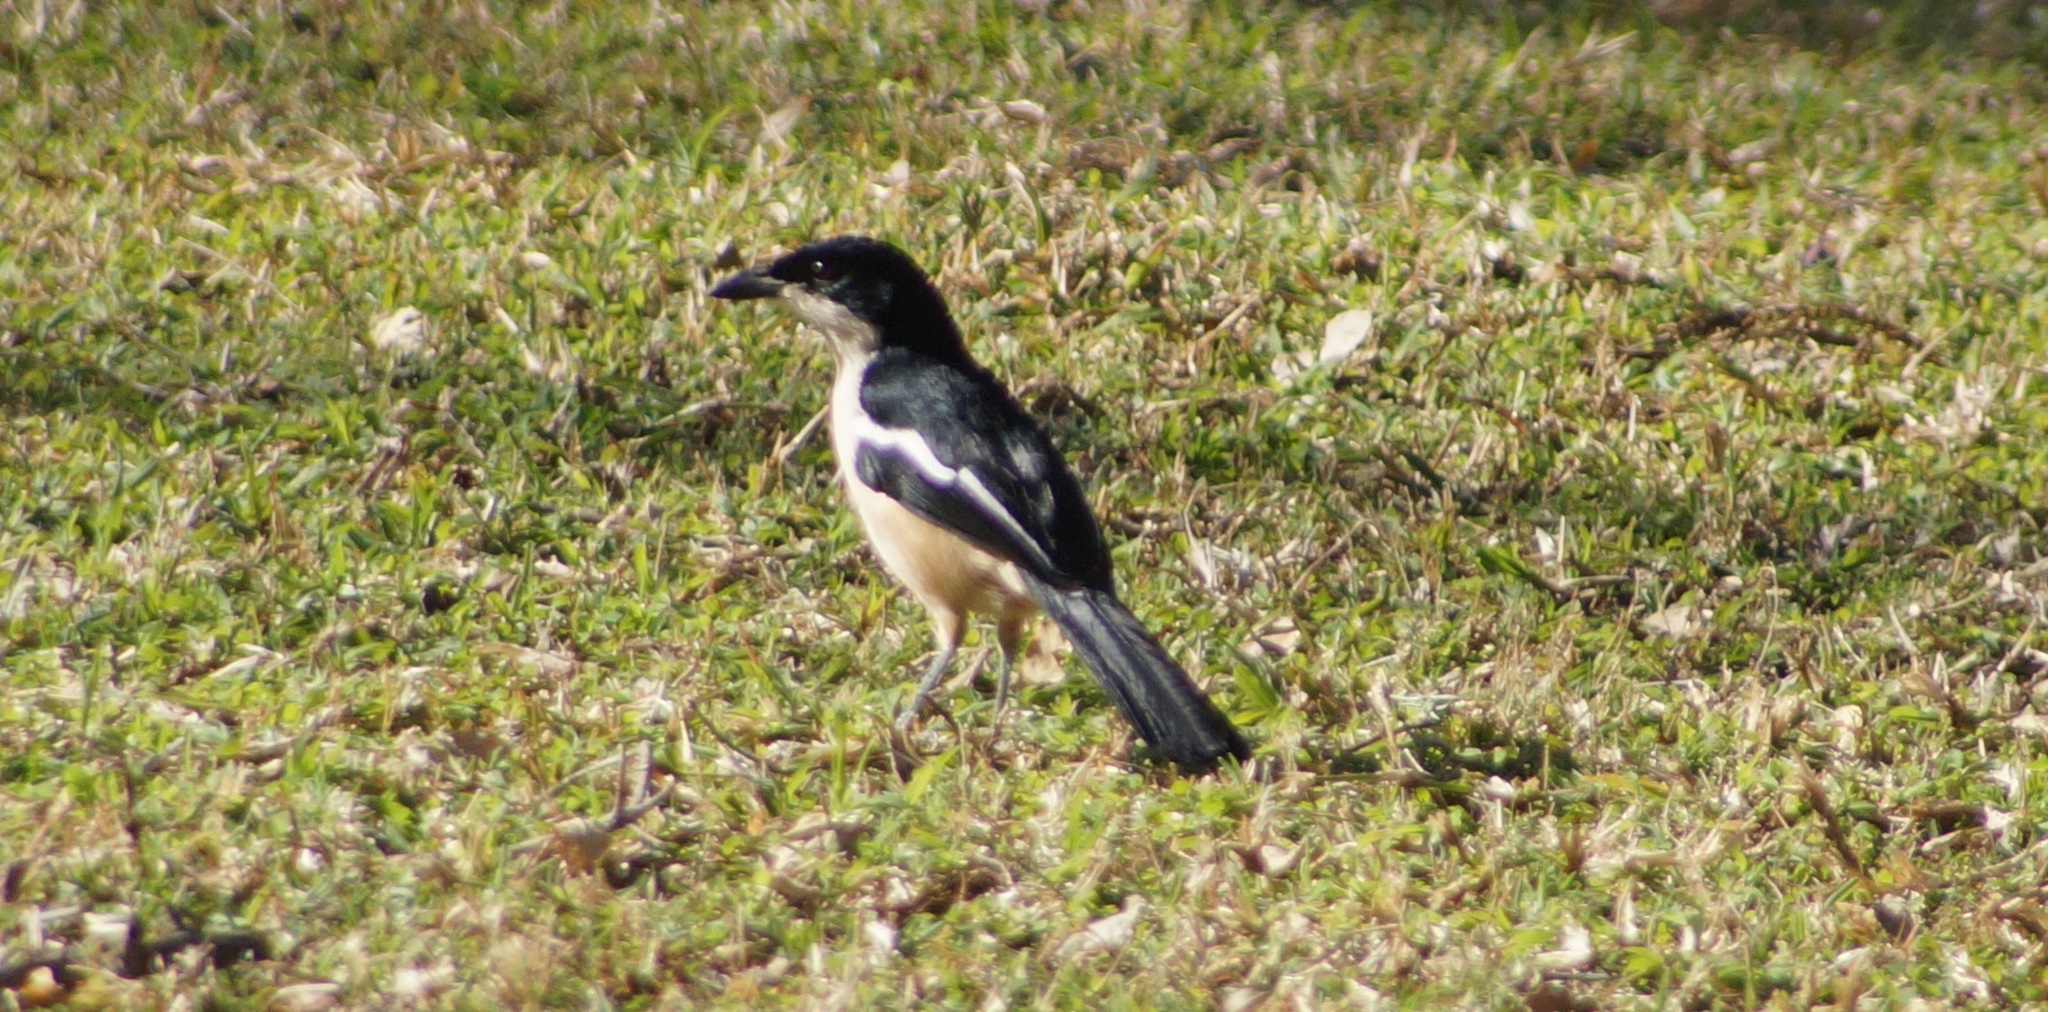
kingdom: Animalia
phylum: Chordata
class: Aves
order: Passeriformes
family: Malaconotidae
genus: Laniarius
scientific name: Laniarius ferrugineus
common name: Southern boubou
